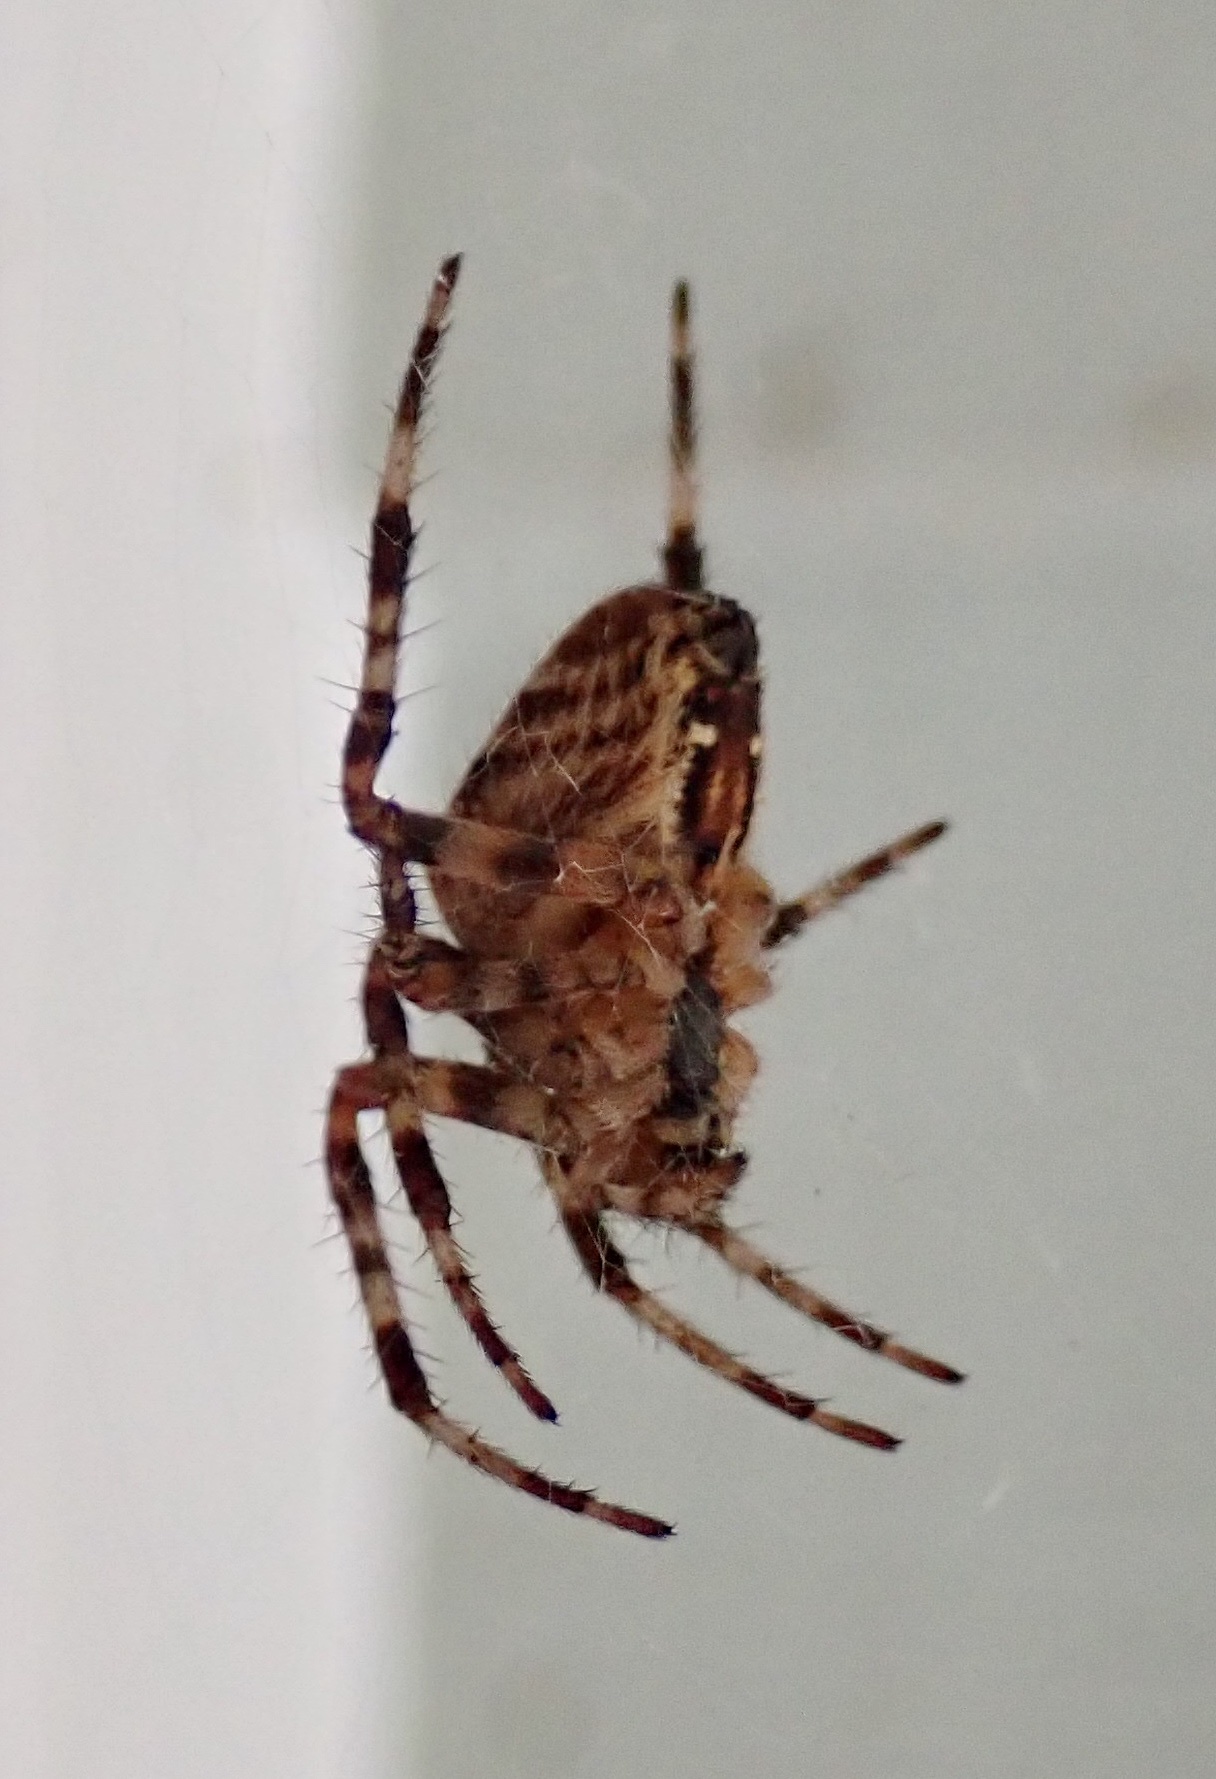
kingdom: Animalia
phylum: Arthropoda
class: Arachnida
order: Araneae
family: Araneidae
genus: Araneus
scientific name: Araneus diadematus
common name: Cross orbweaver
